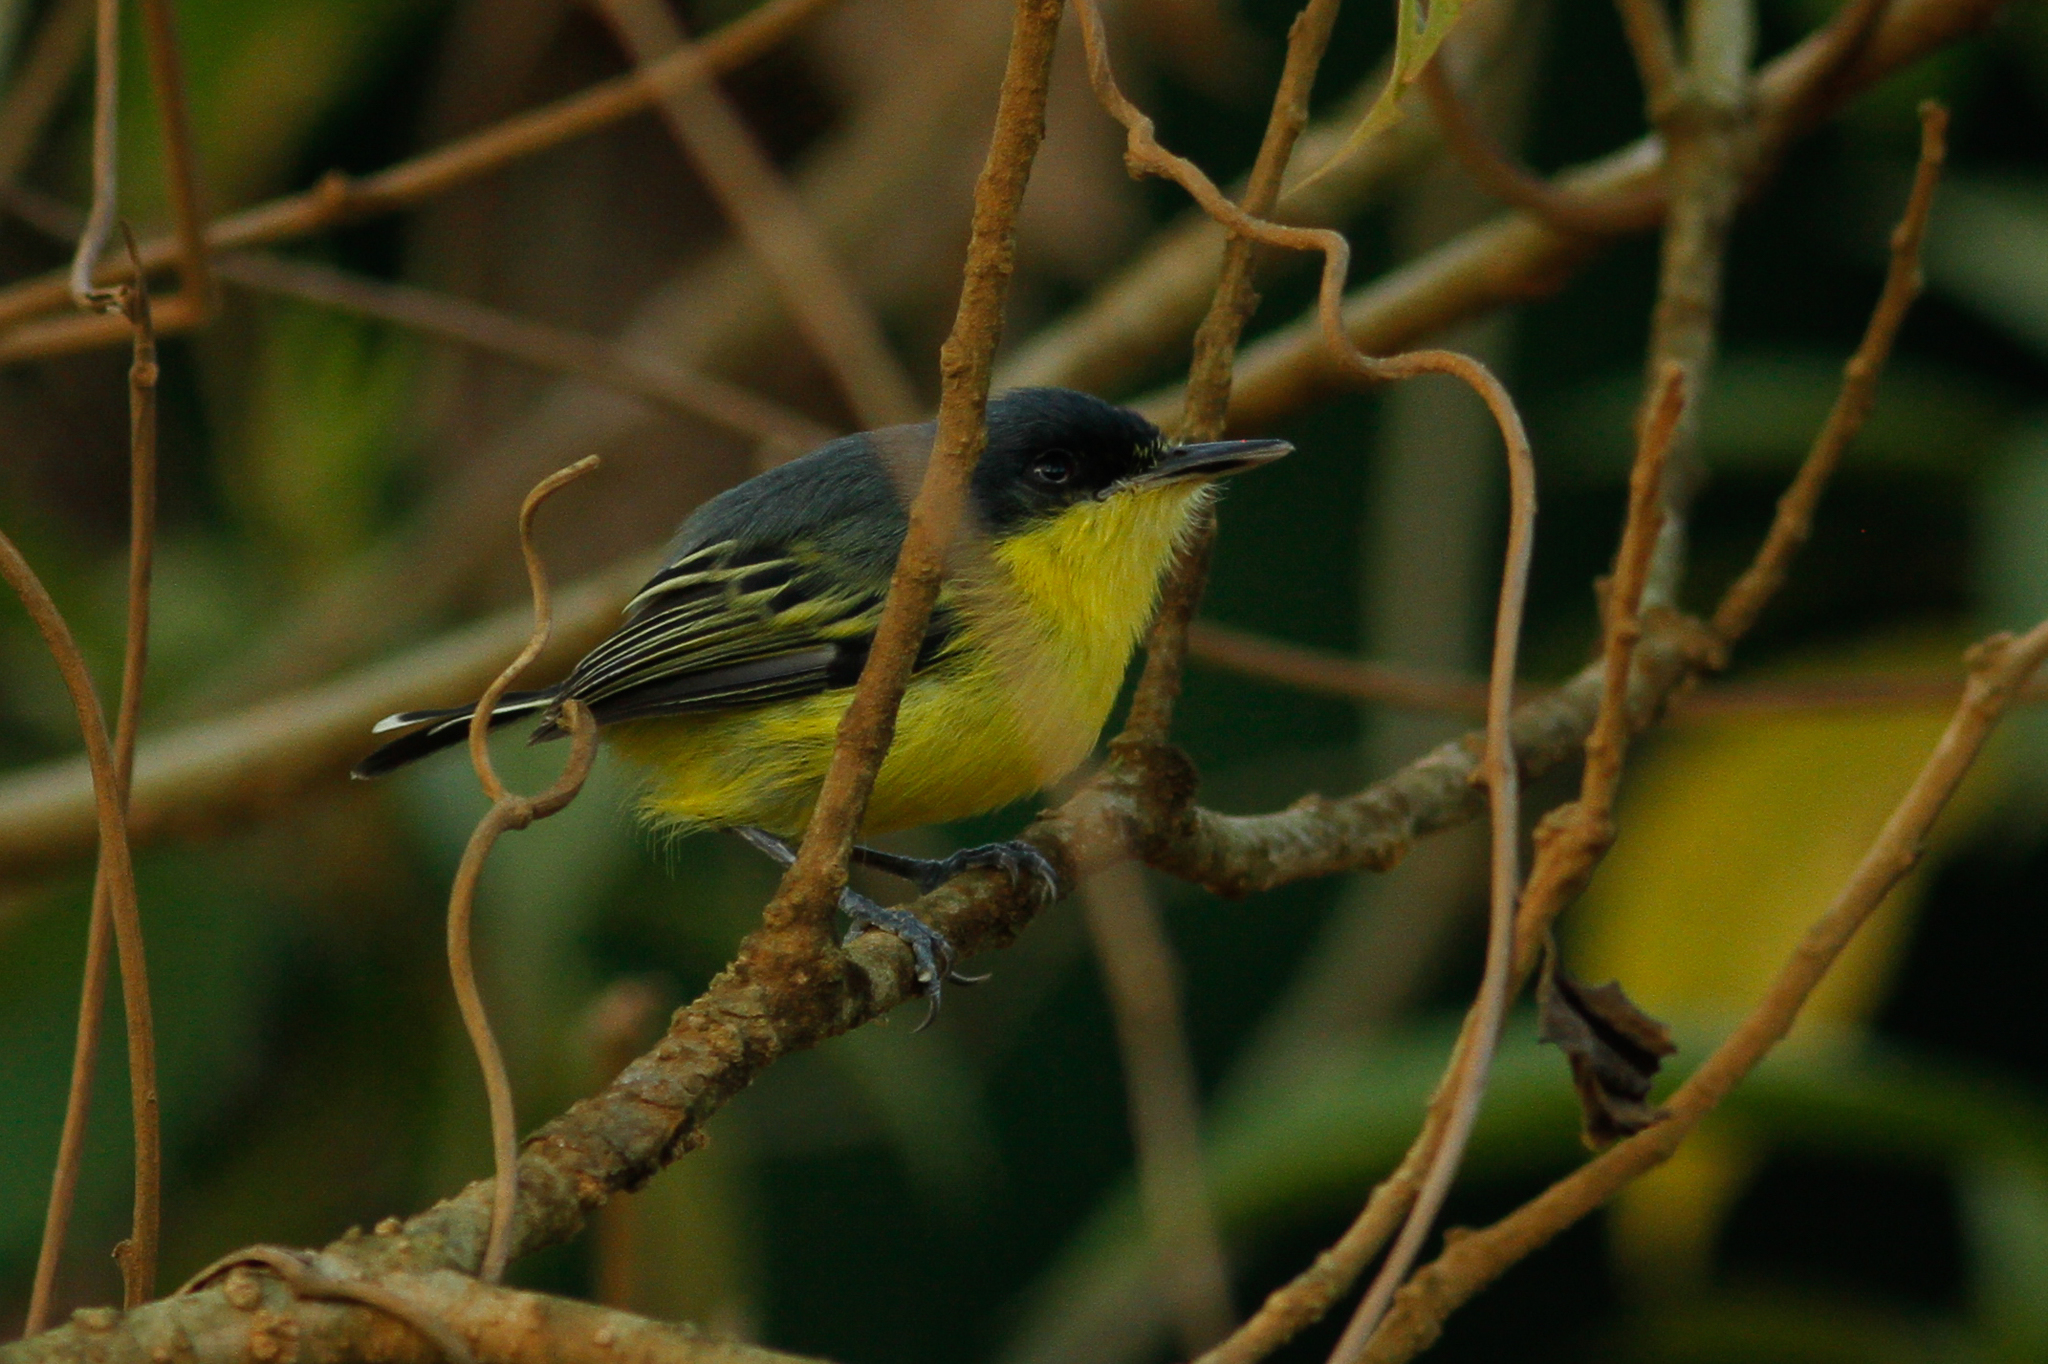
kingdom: Animalia
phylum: Chordata
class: Aves
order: Passeriformes
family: Tyrannidae
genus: Todirostrum
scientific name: Todirostrum cinereum
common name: Common tody-flycatcher
